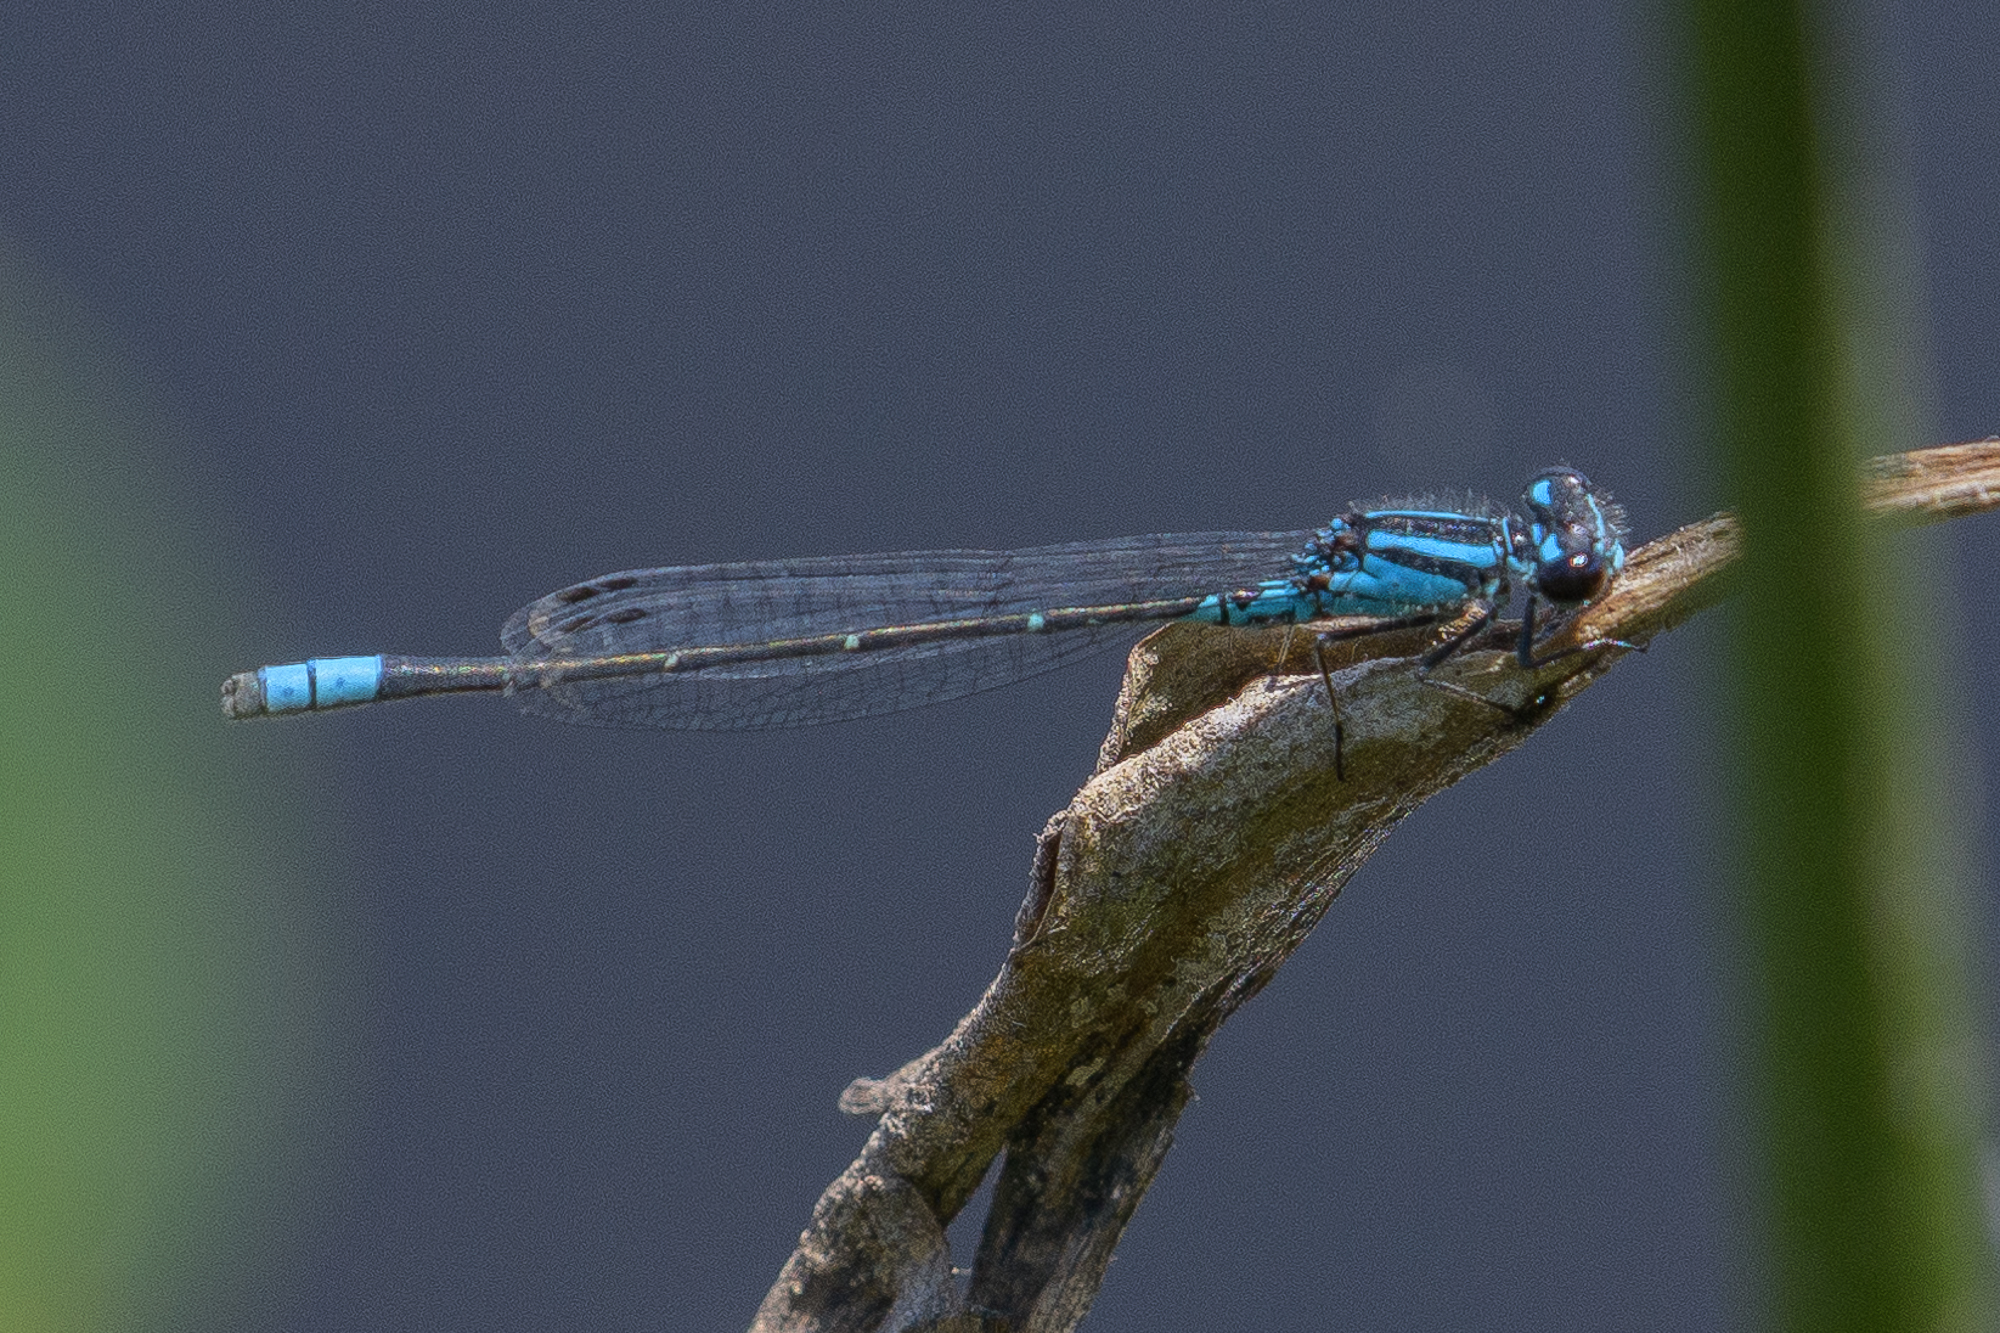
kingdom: Animalia
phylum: Arthropoda
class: Insecta
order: Odonata
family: Coenagrionidae
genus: Enallagma
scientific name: Enallagma geminatum
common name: Skimming bluet
